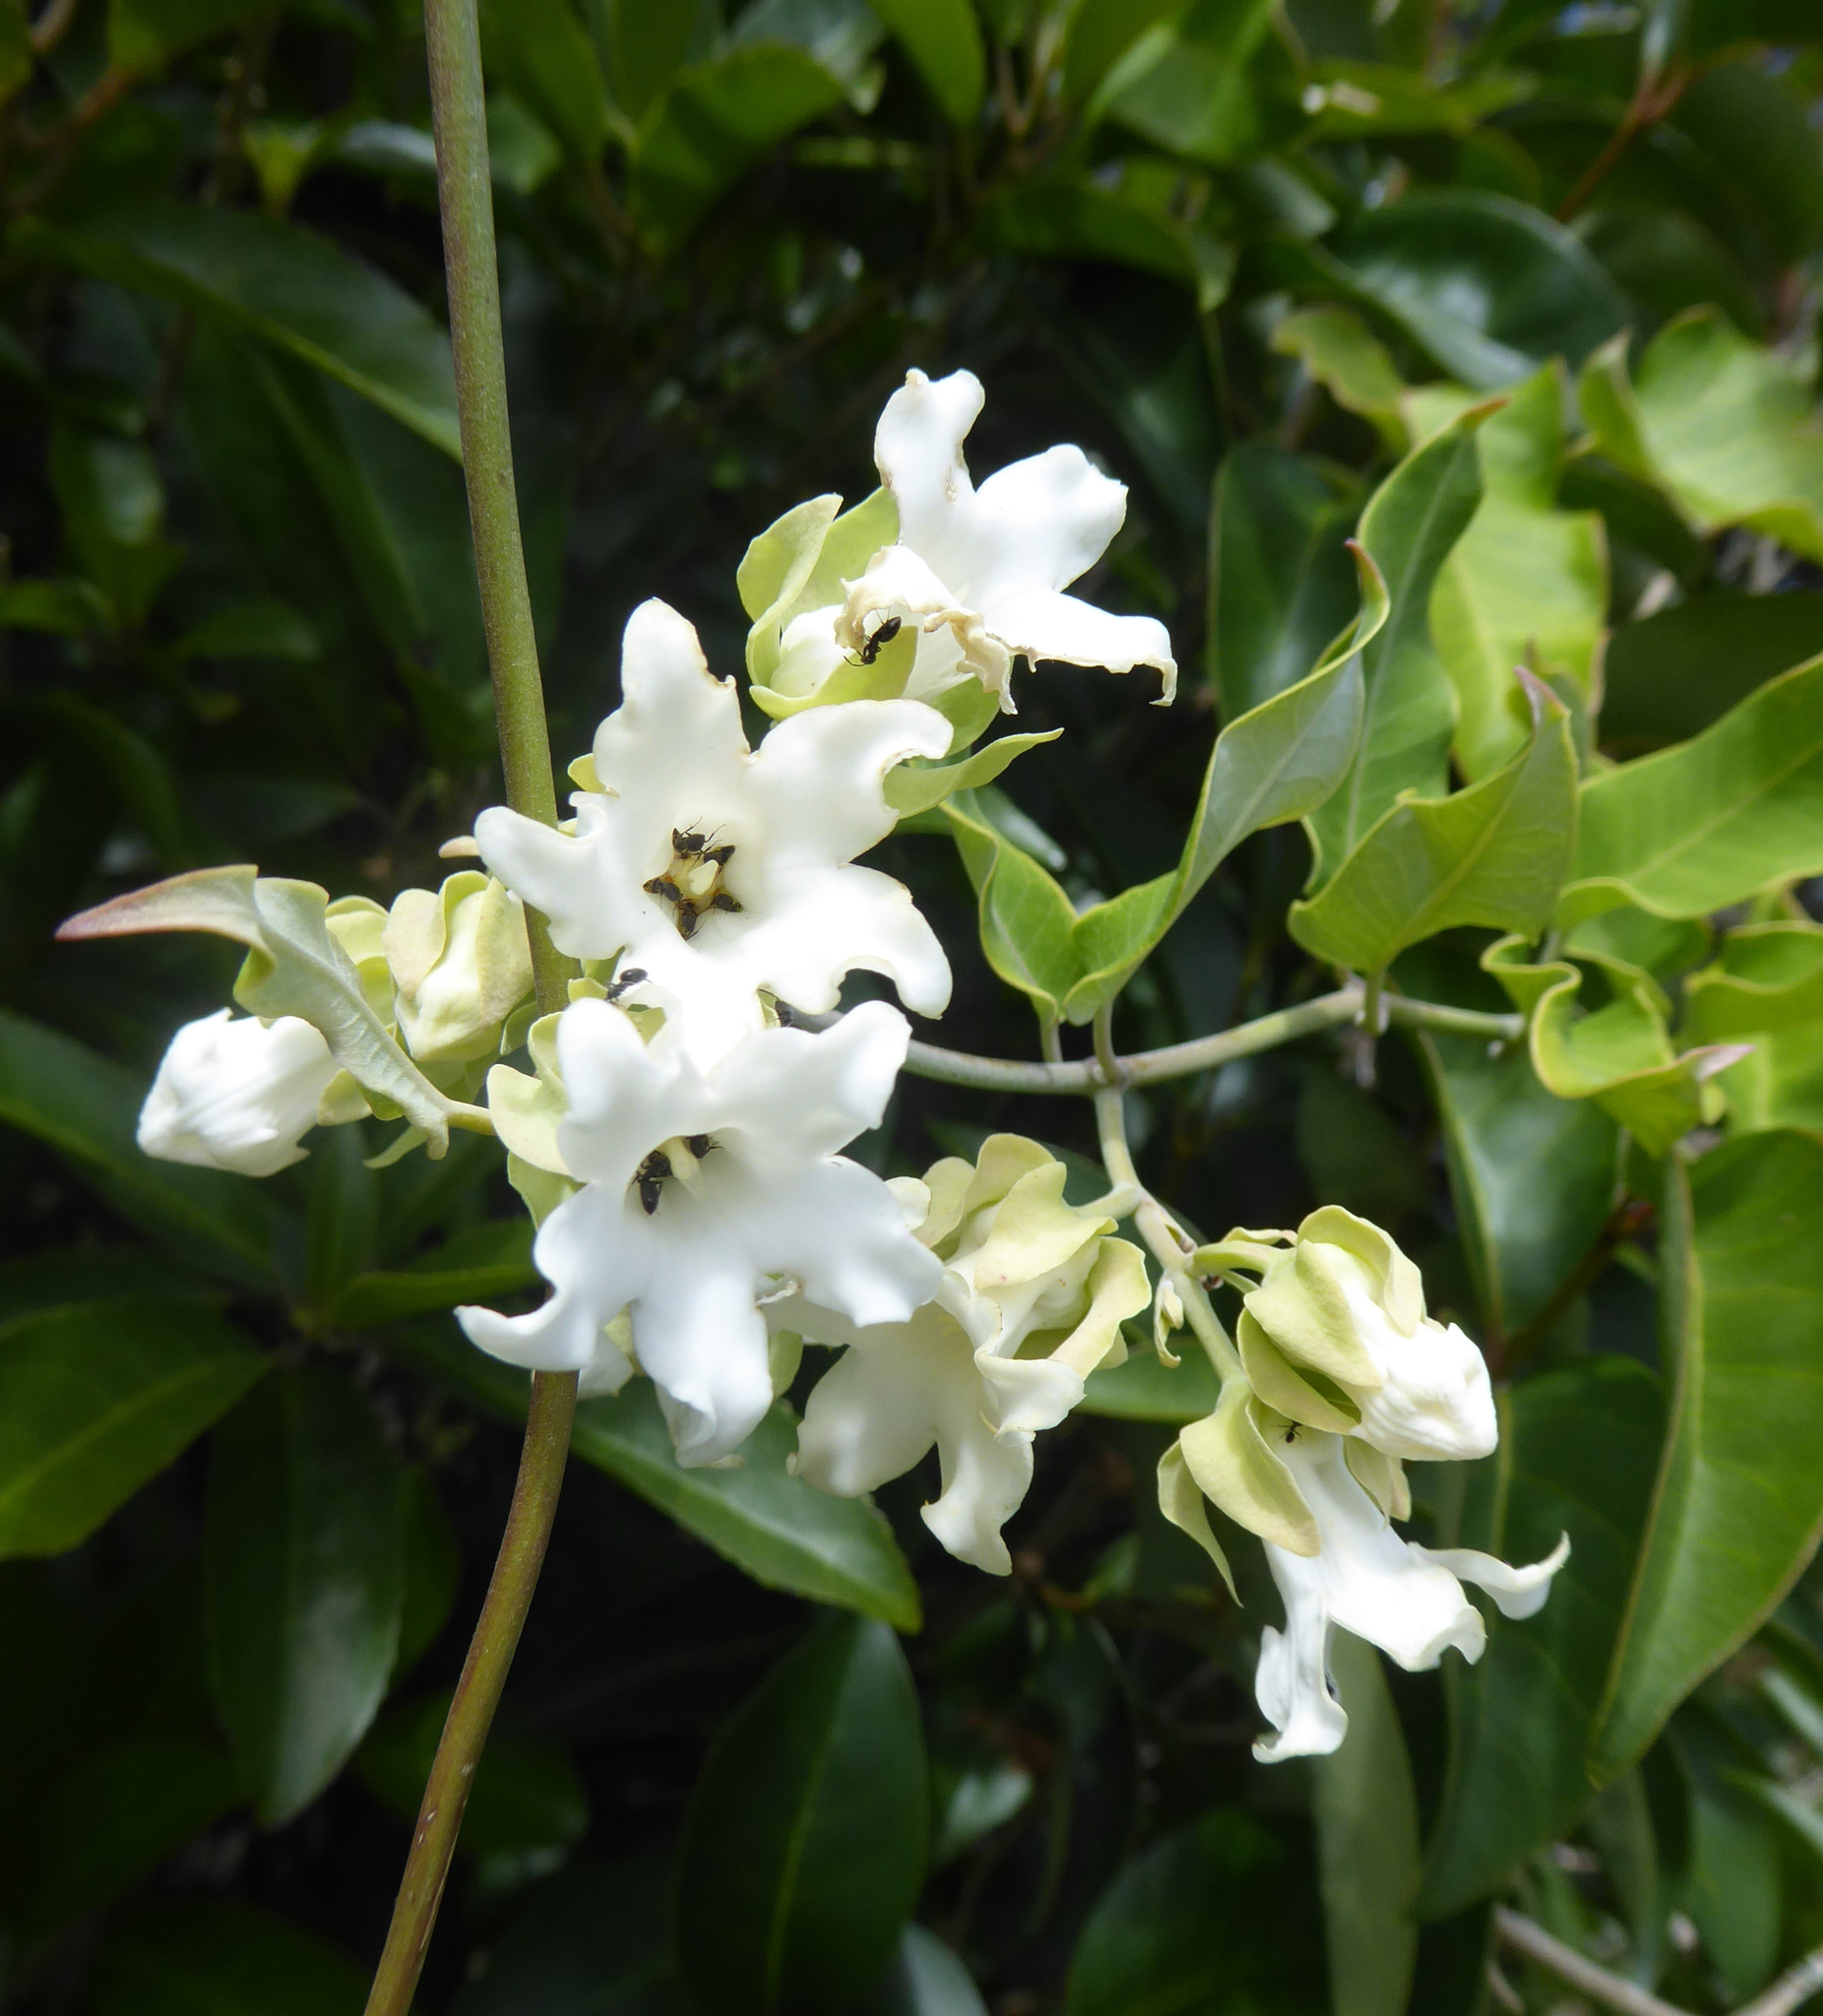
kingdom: Plantae
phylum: Tracheophyta
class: Magnoliopsida
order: Gentianales
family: Apocynaceae
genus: Araujia
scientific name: Araujia sericifera
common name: White bladderflower
